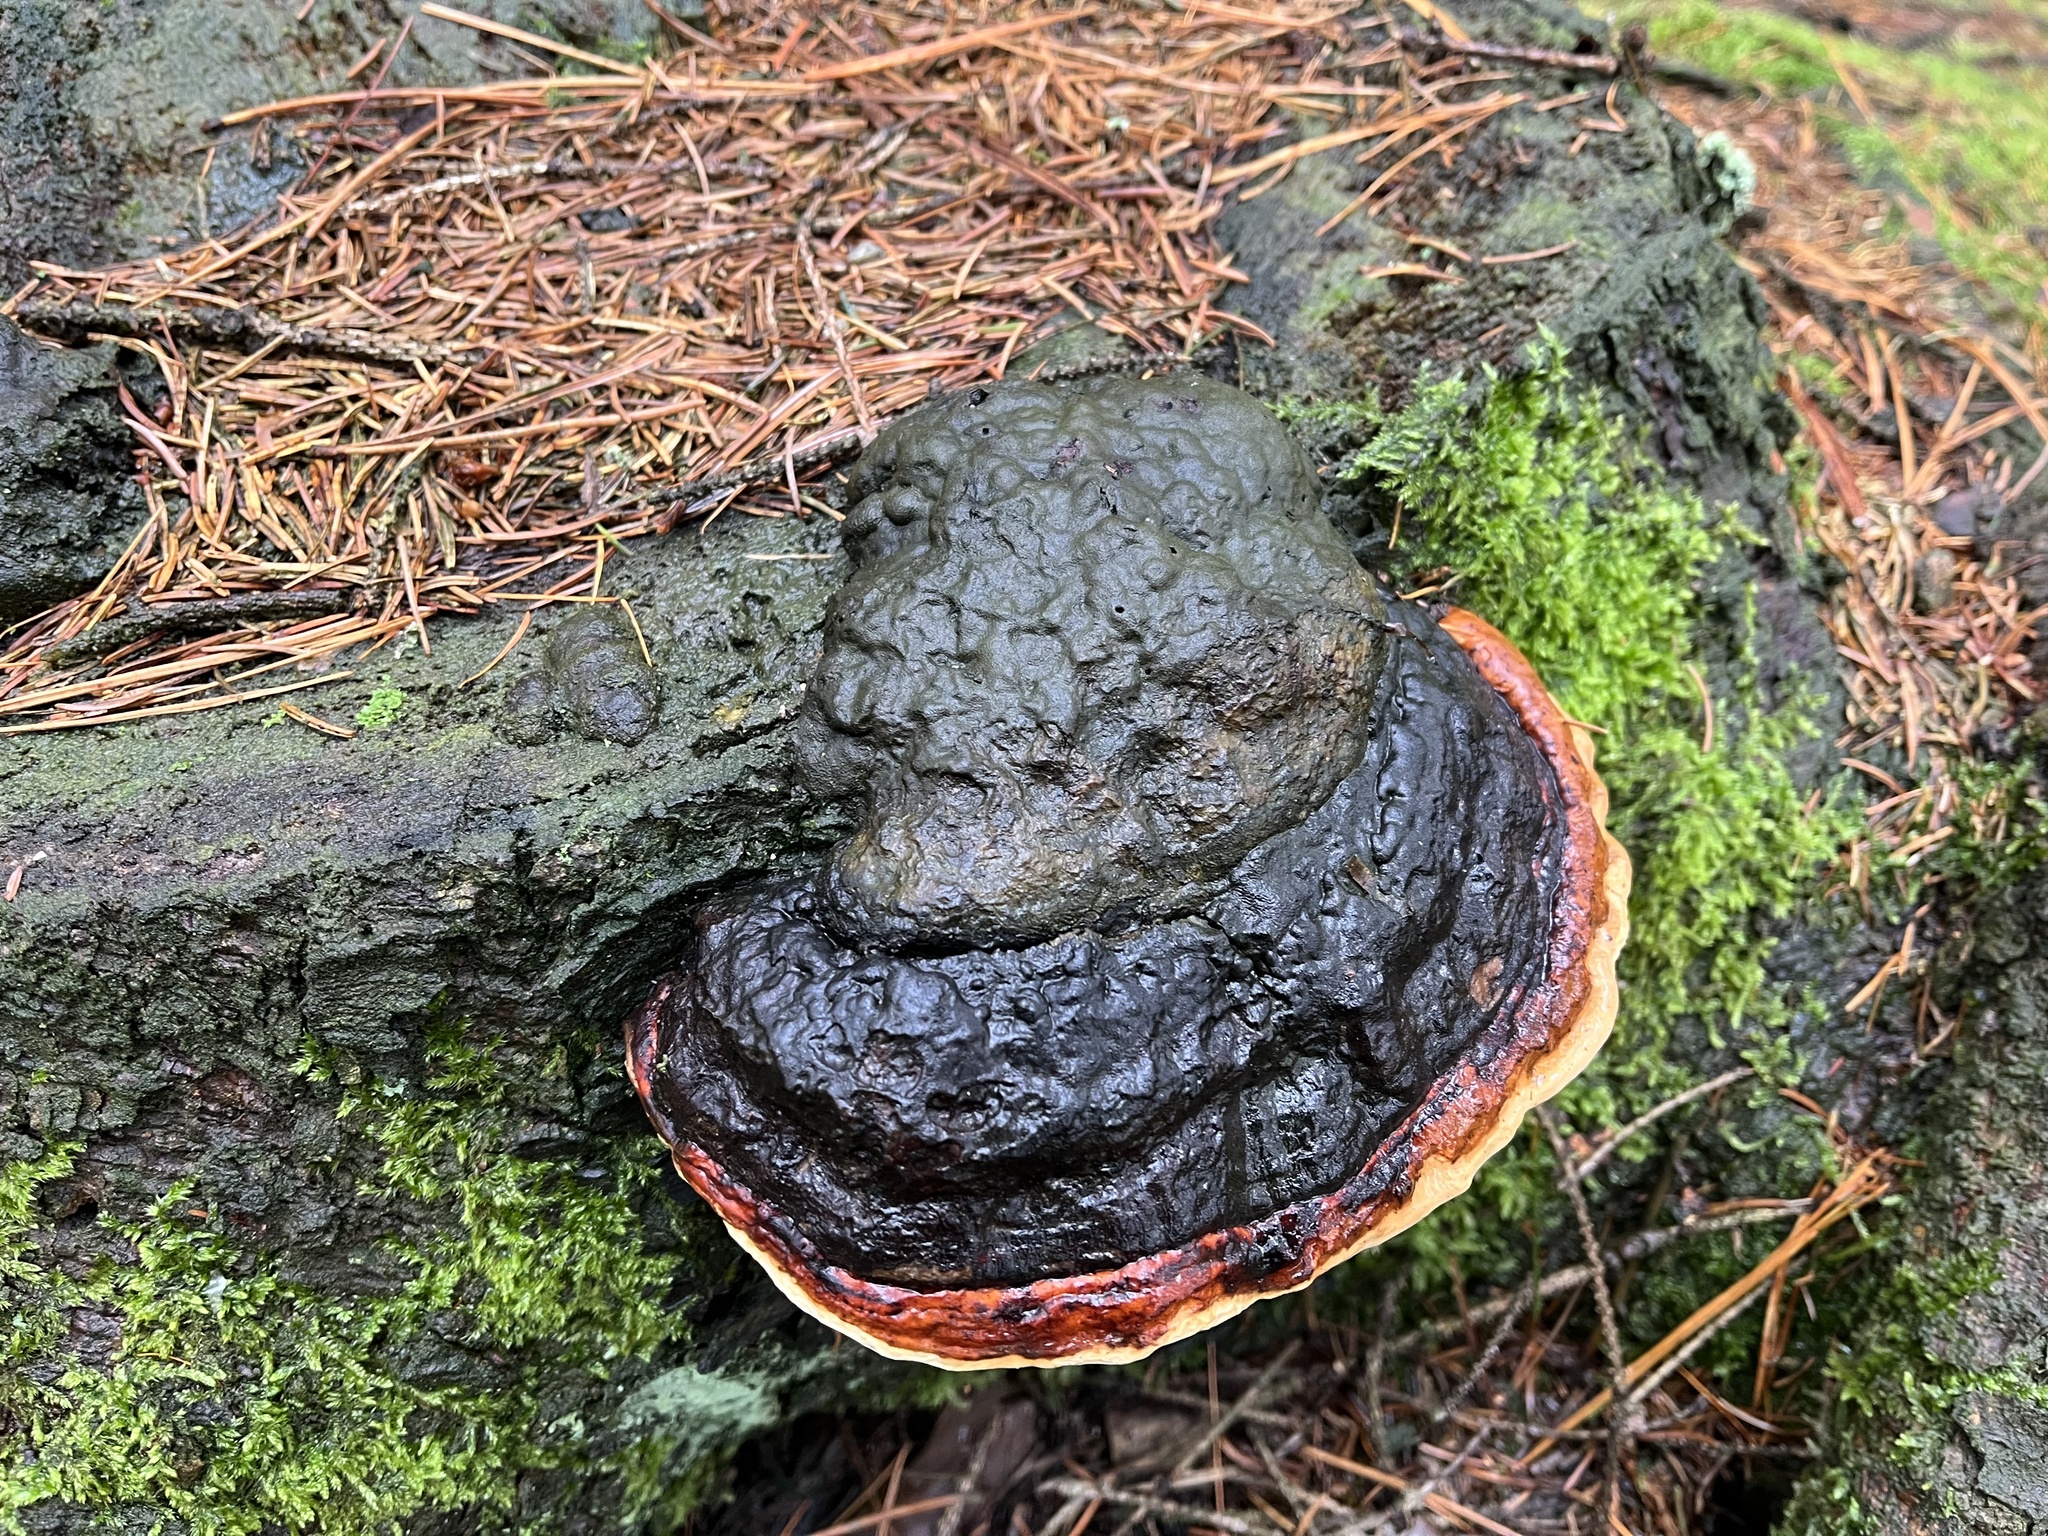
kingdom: Fungi
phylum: Basidiomycota
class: Agaricomycetes
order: Polyporales
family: Fomitopsidaceae
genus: Fomitopsis
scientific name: Fomitopsis pinicola
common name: Red-belted bracket
